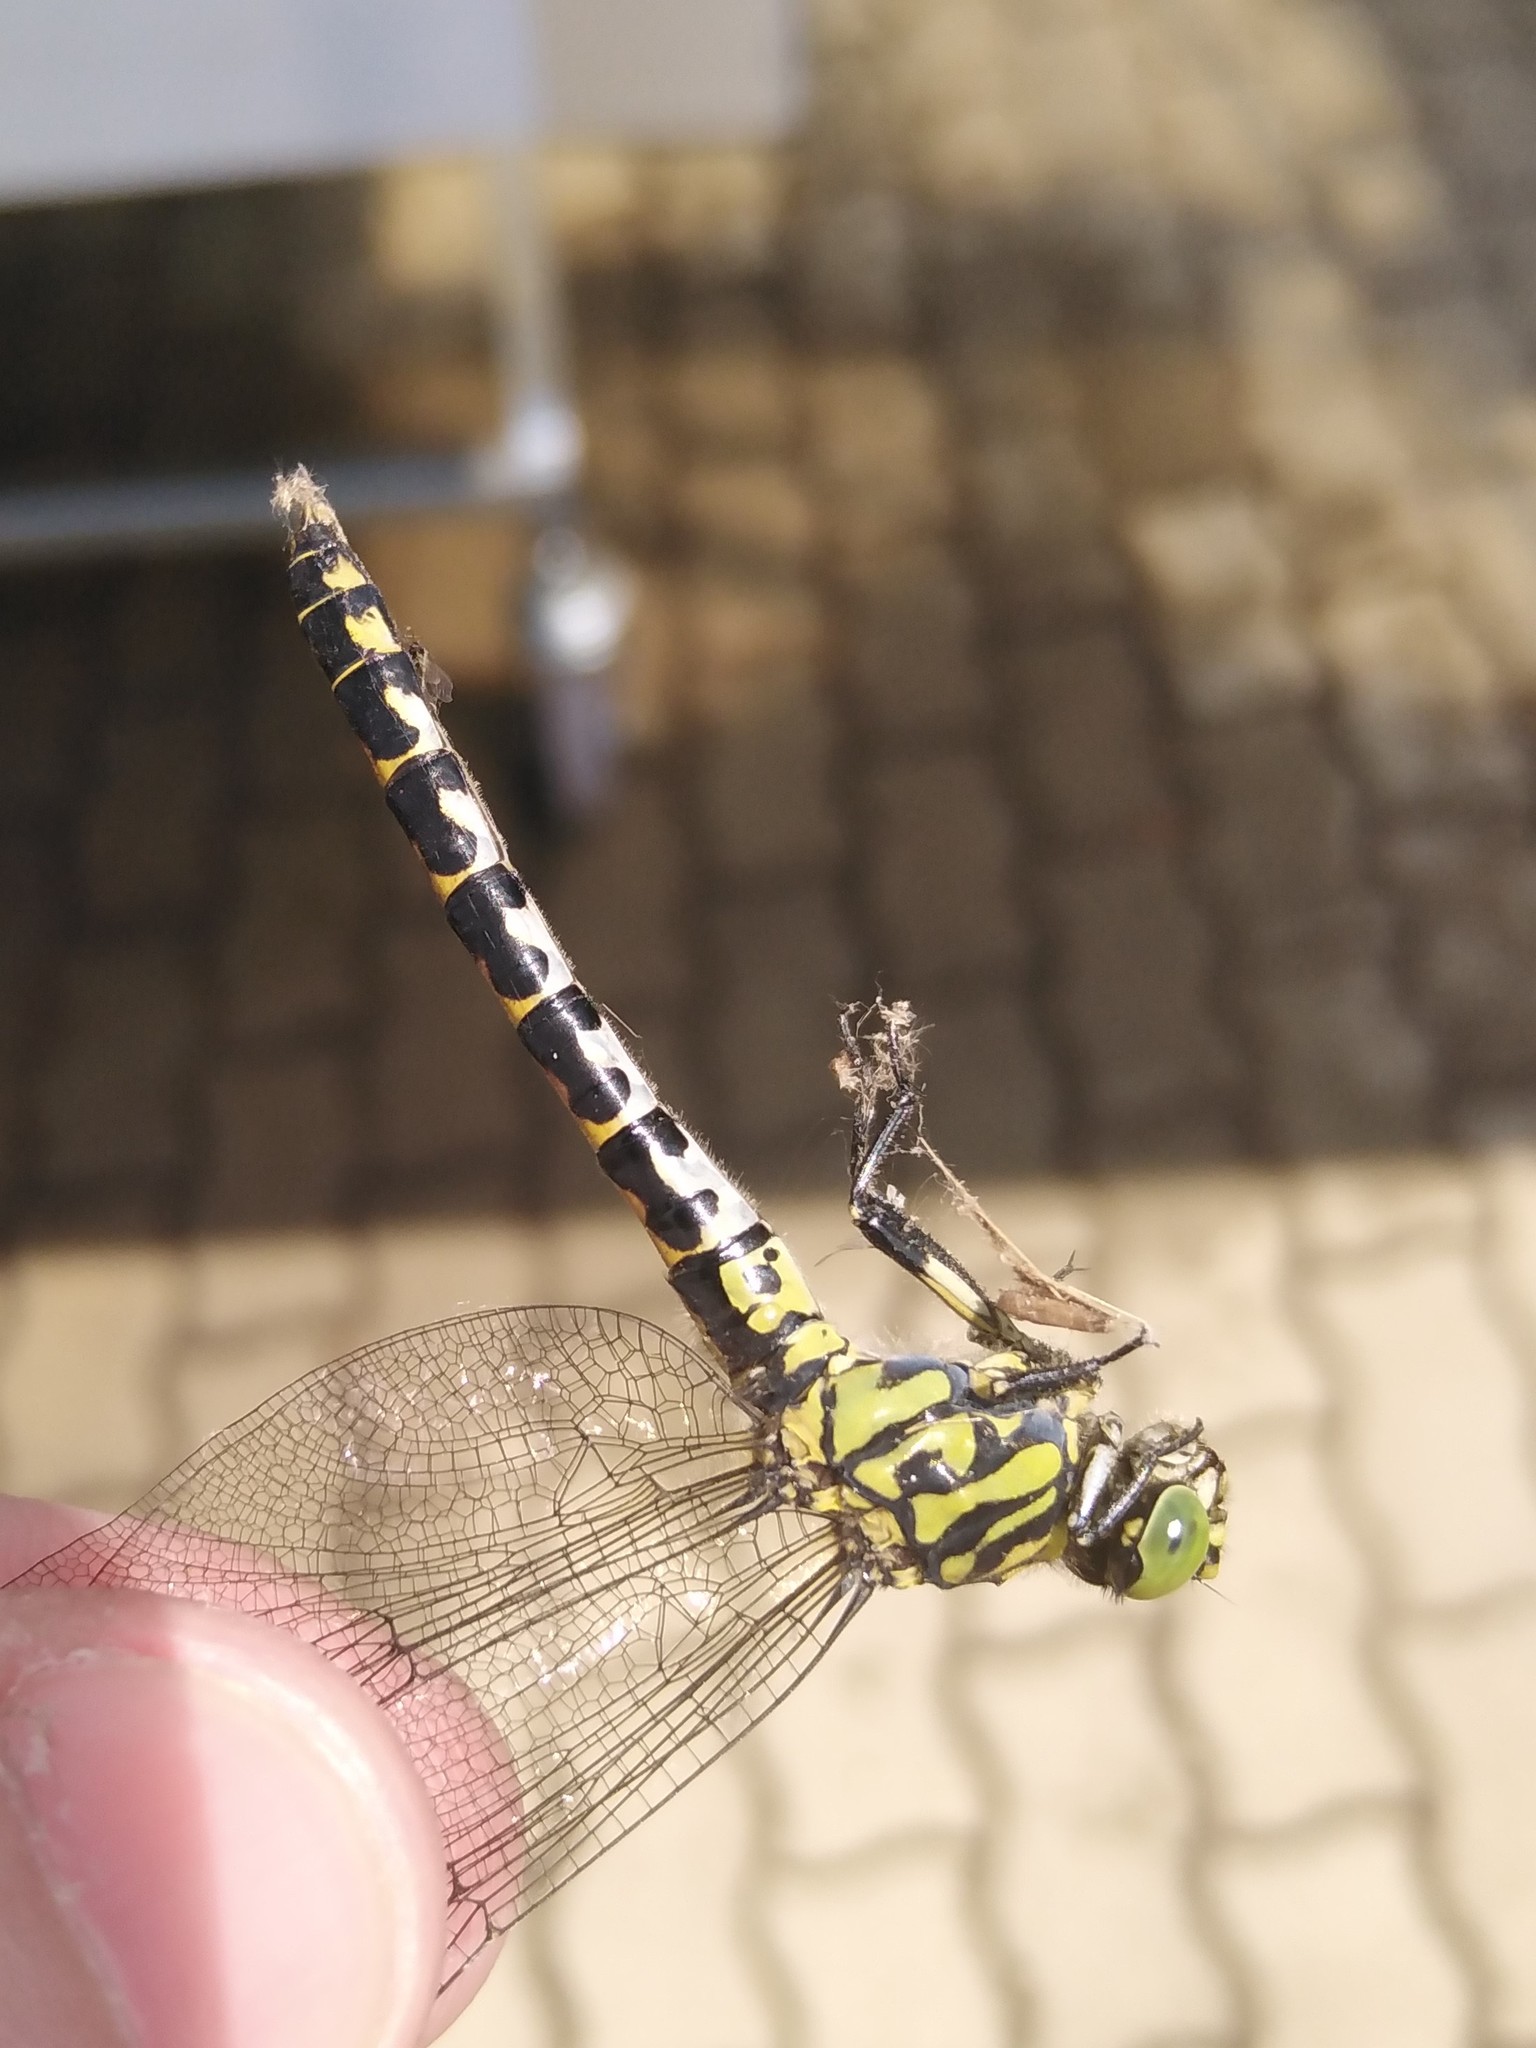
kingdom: Animalia
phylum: Arthropoda
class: Insecta
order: Odonata
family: Gomphidae
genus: Onychogomphus
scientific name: Onychogomphus forcipatus
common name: Small pincertail
